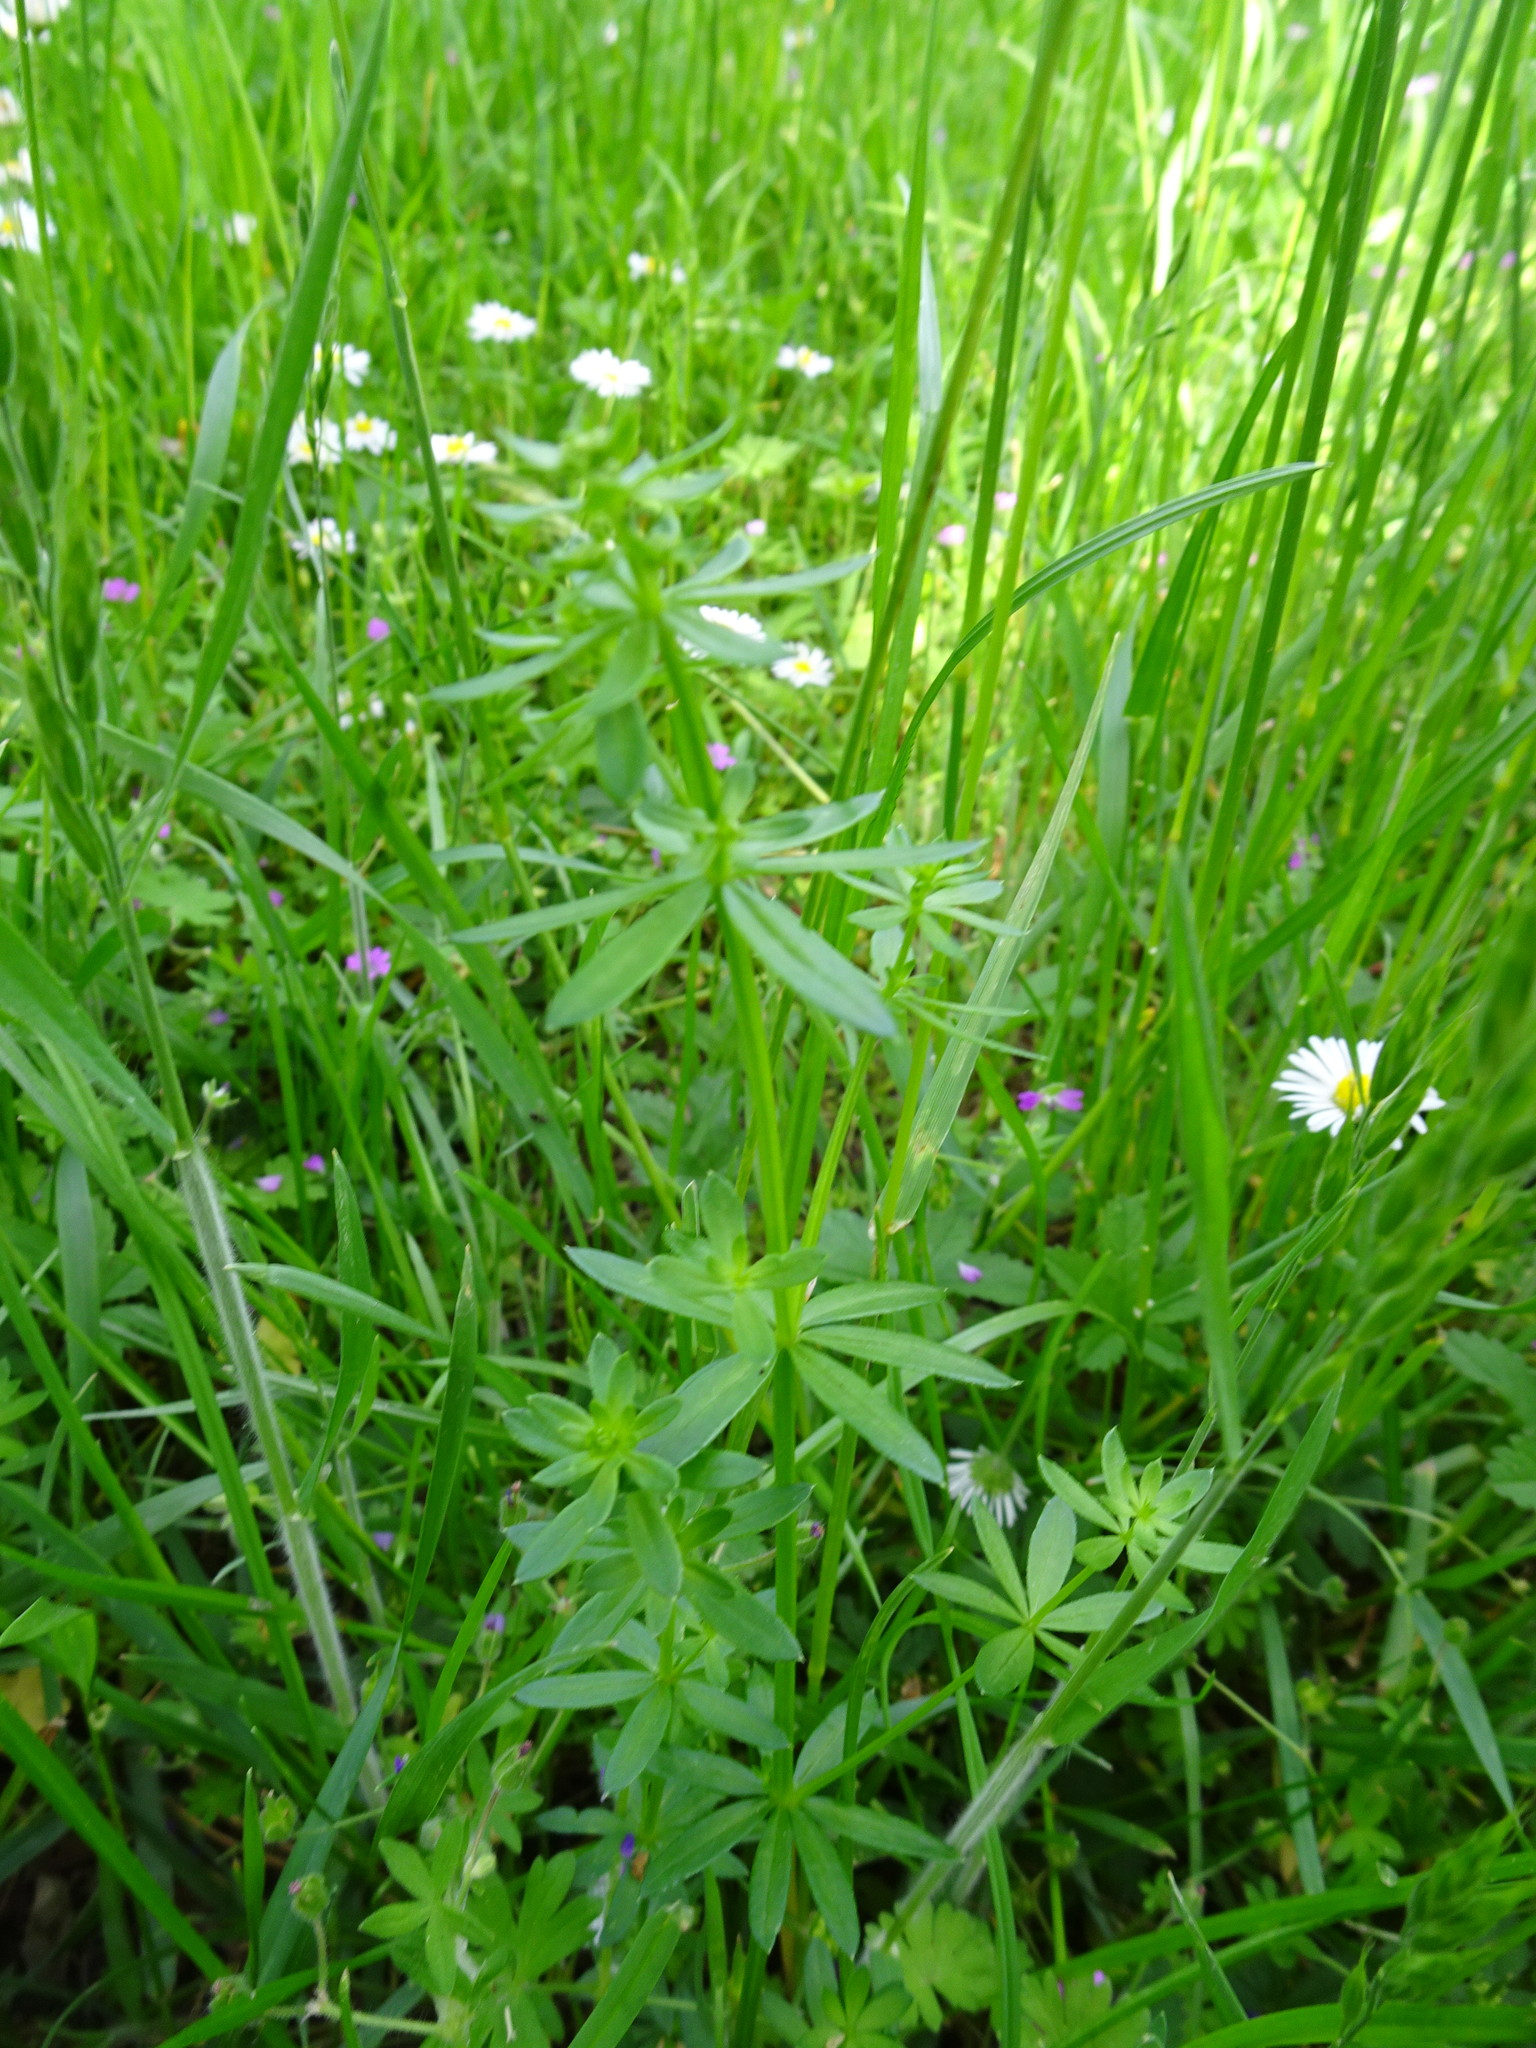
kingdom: Plantae
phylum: Tracheophyta
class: Magnoliopsida
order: Gentianales
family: Rubiaceae
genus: Galium
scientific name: Galium album
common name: White bedstraw
